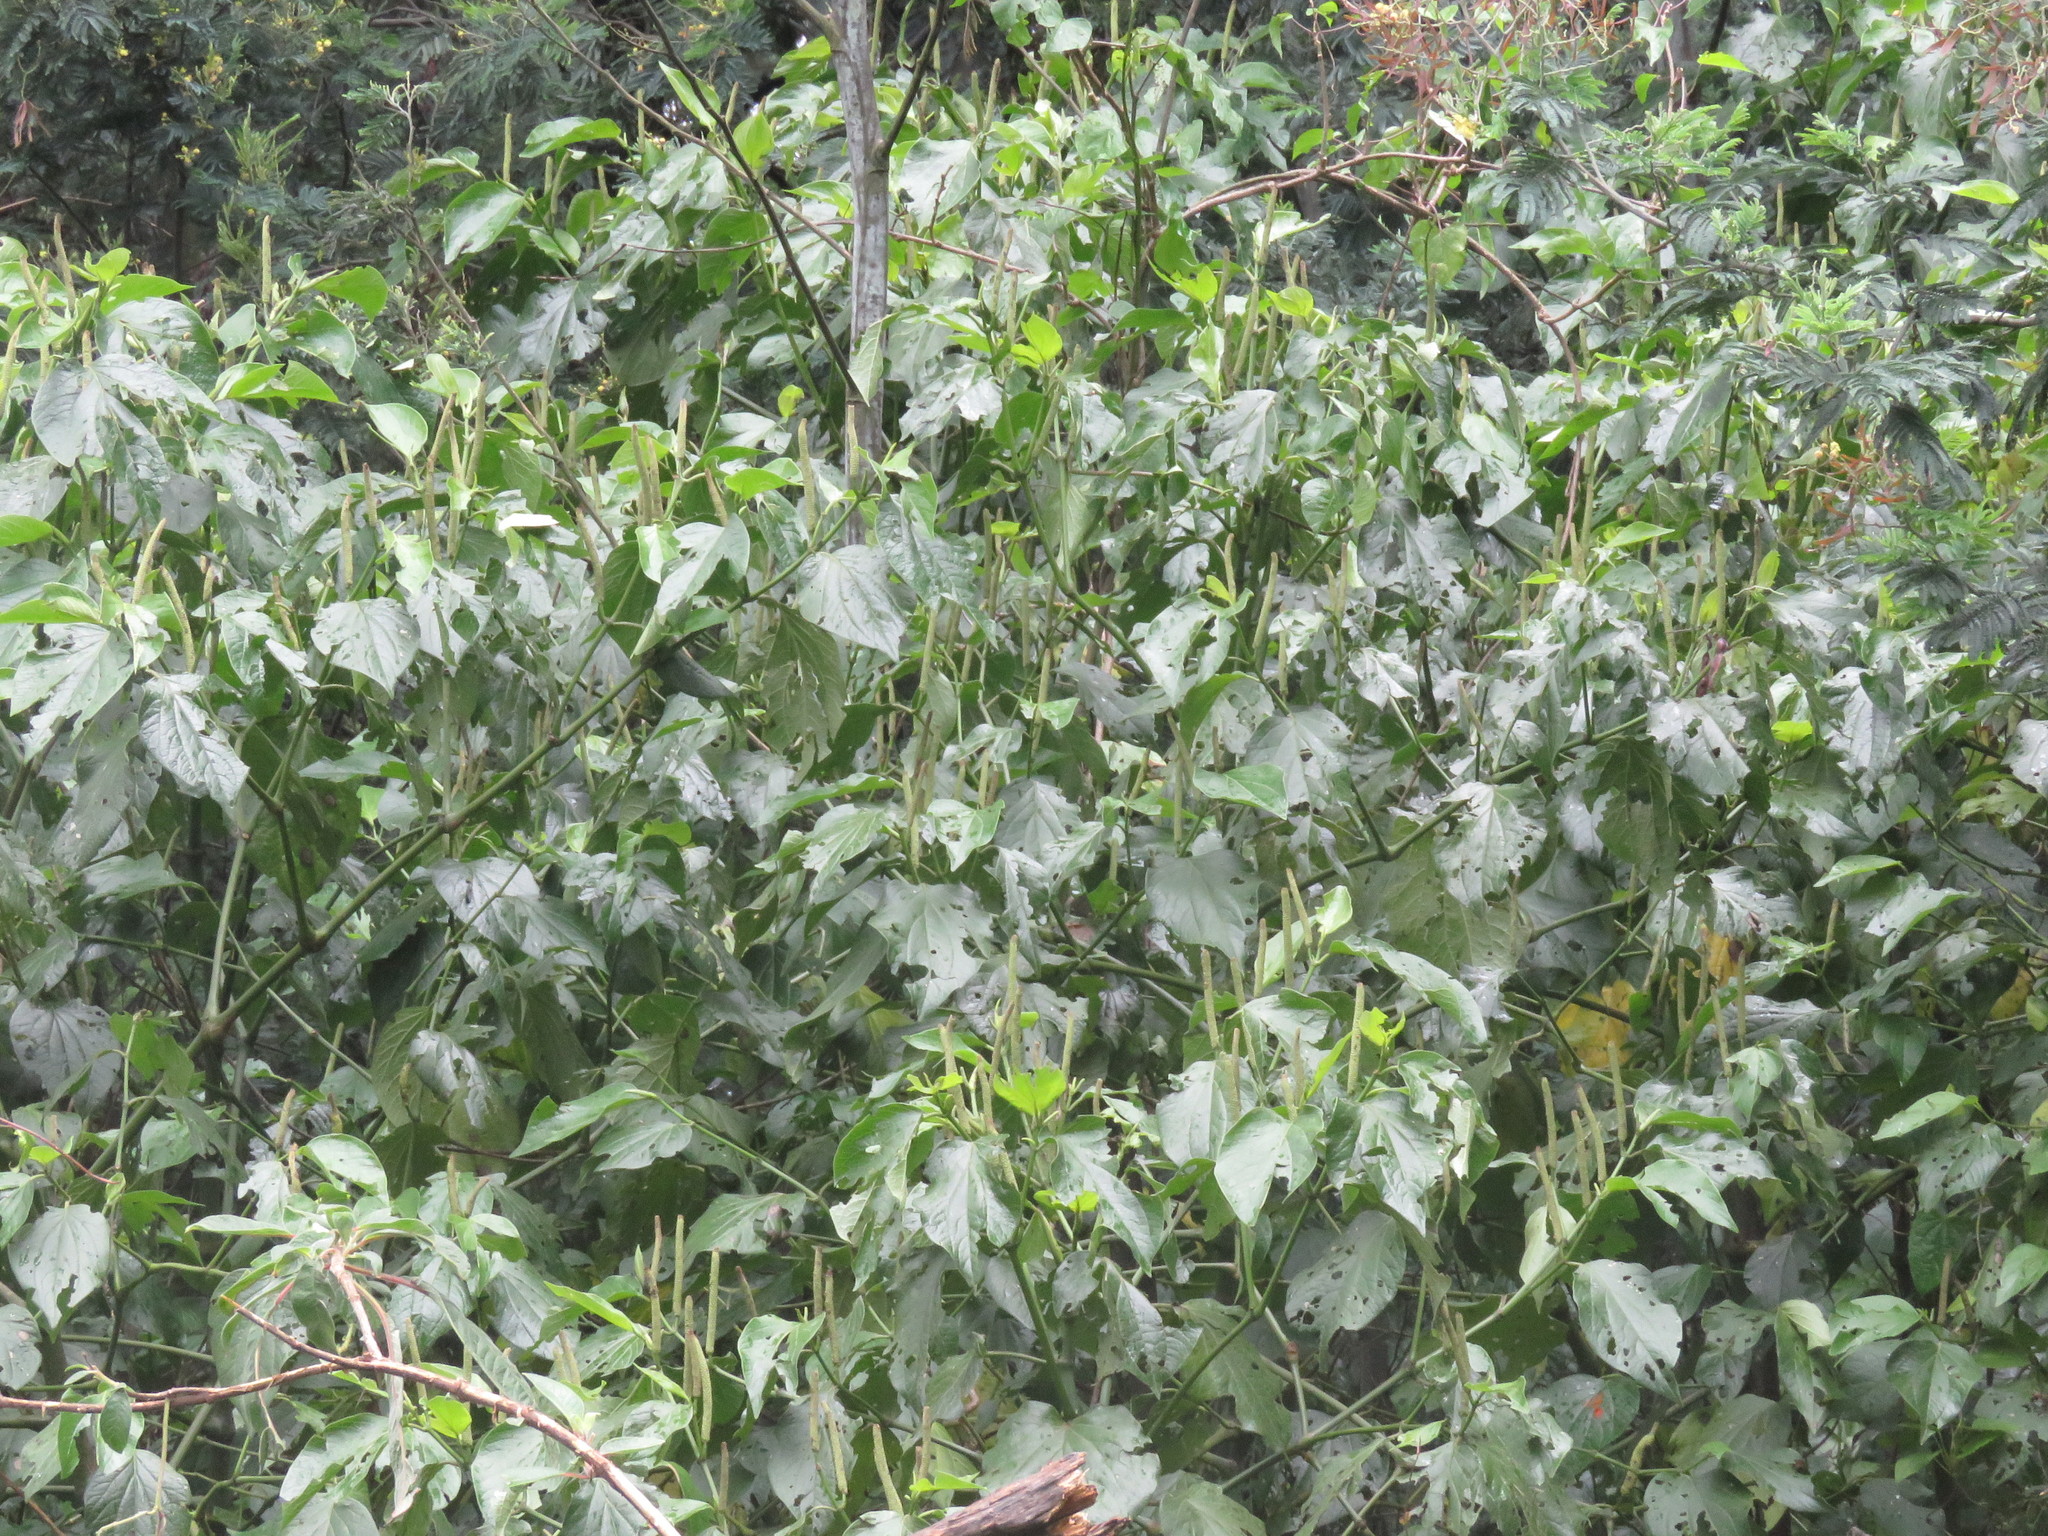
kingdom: Plantae
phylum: Tracheophyta
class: Magnoliopsida
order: Piperales
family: Piperaceae
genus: Piper
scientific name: Piper barbatum
